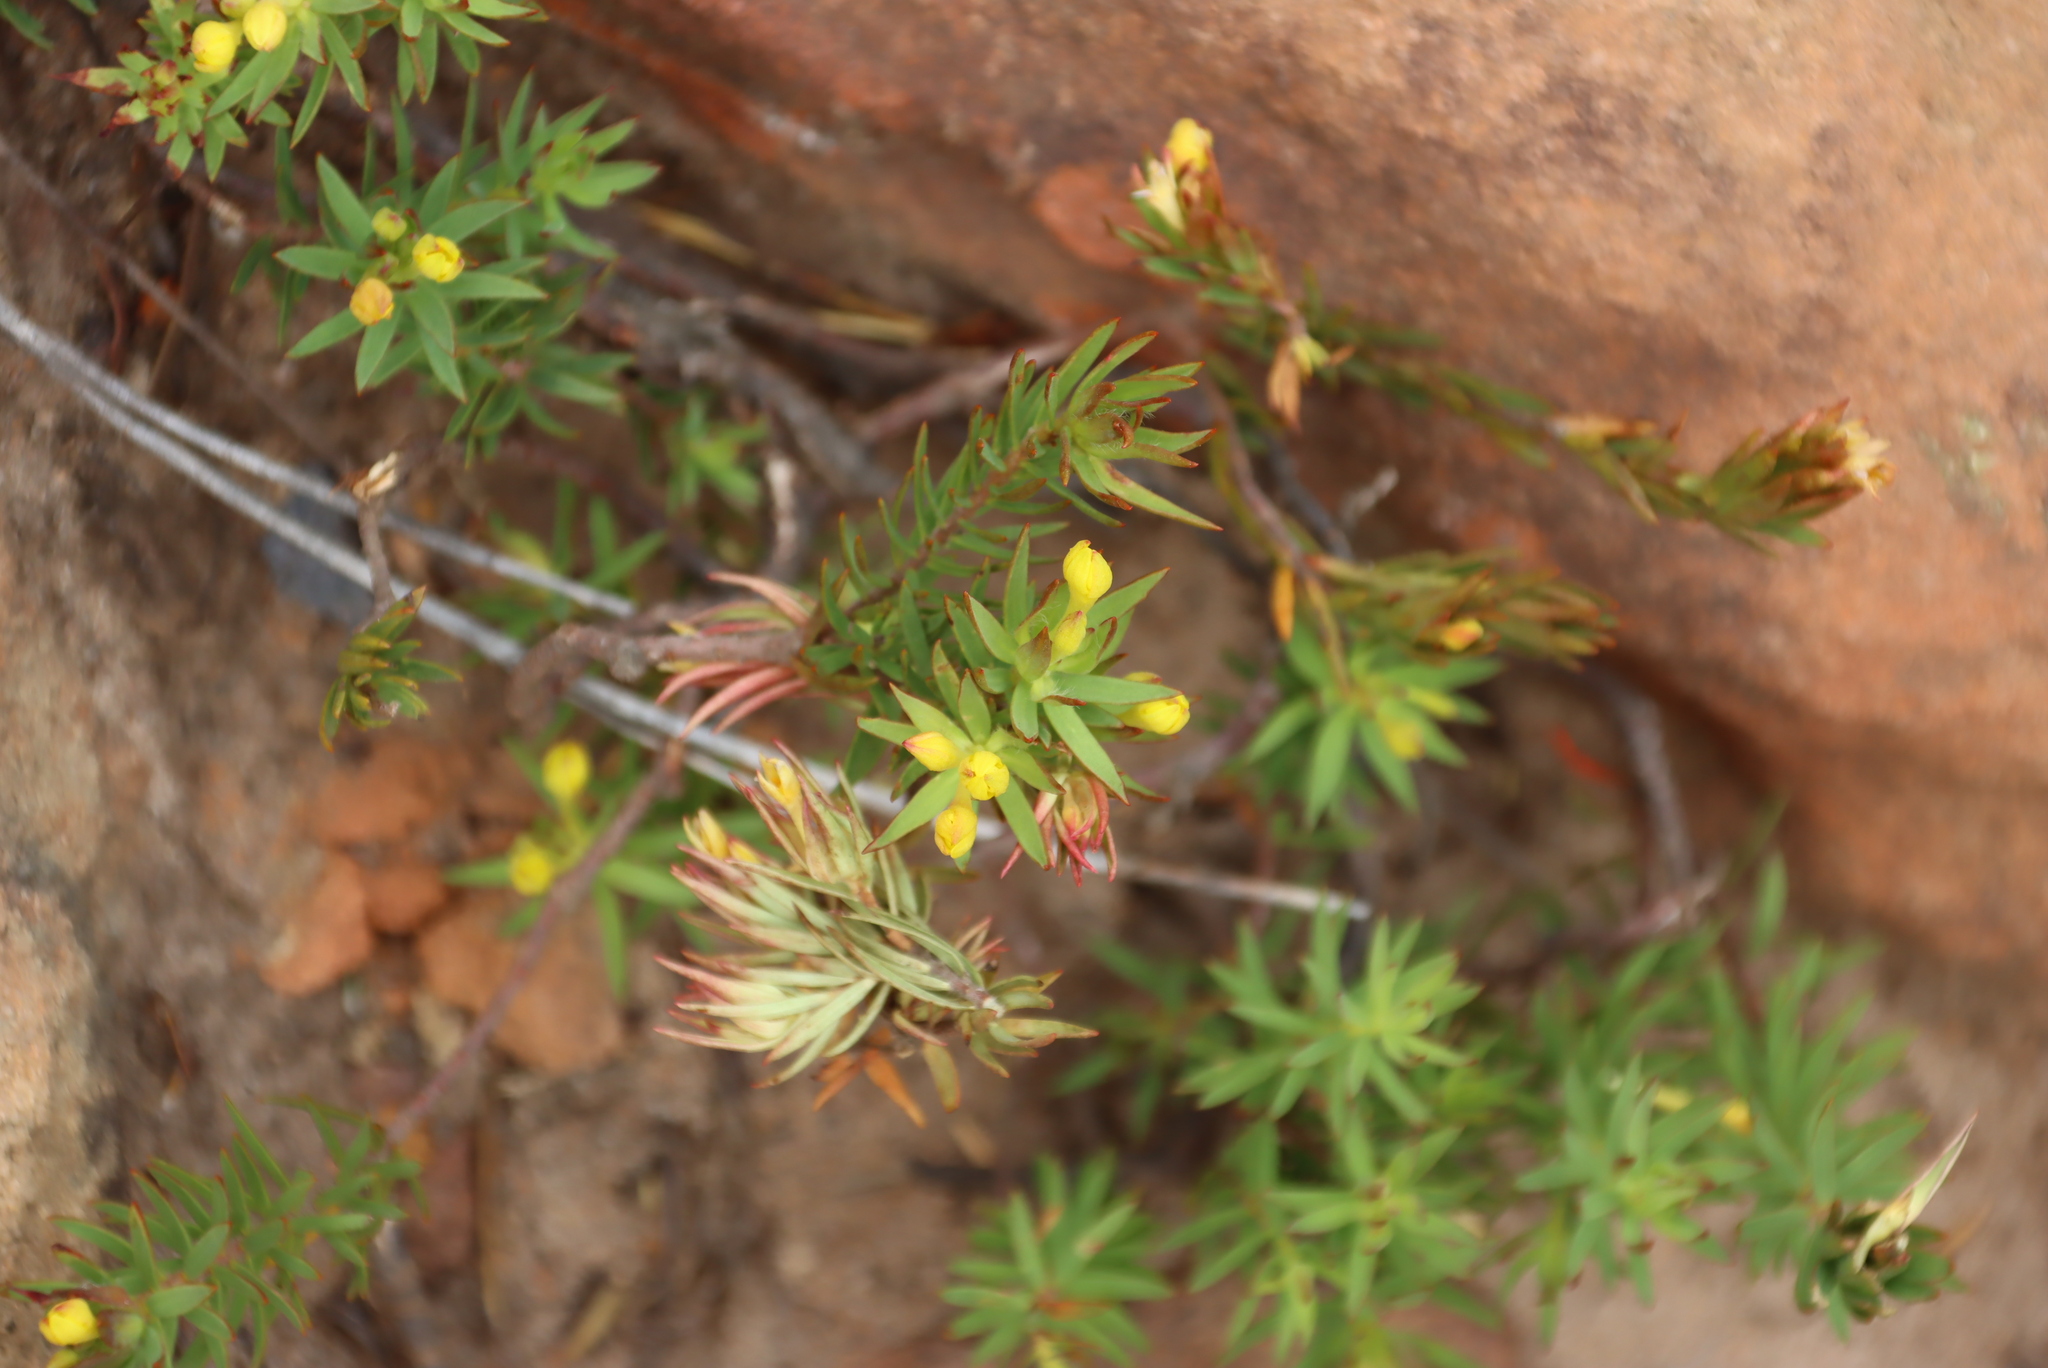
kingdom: Plantae
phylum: Tracheophyta
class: Magnoliopsida
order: Malvales
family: Thymelaeaceae
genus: Gnidia
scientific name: Gnidia juniperifolia
